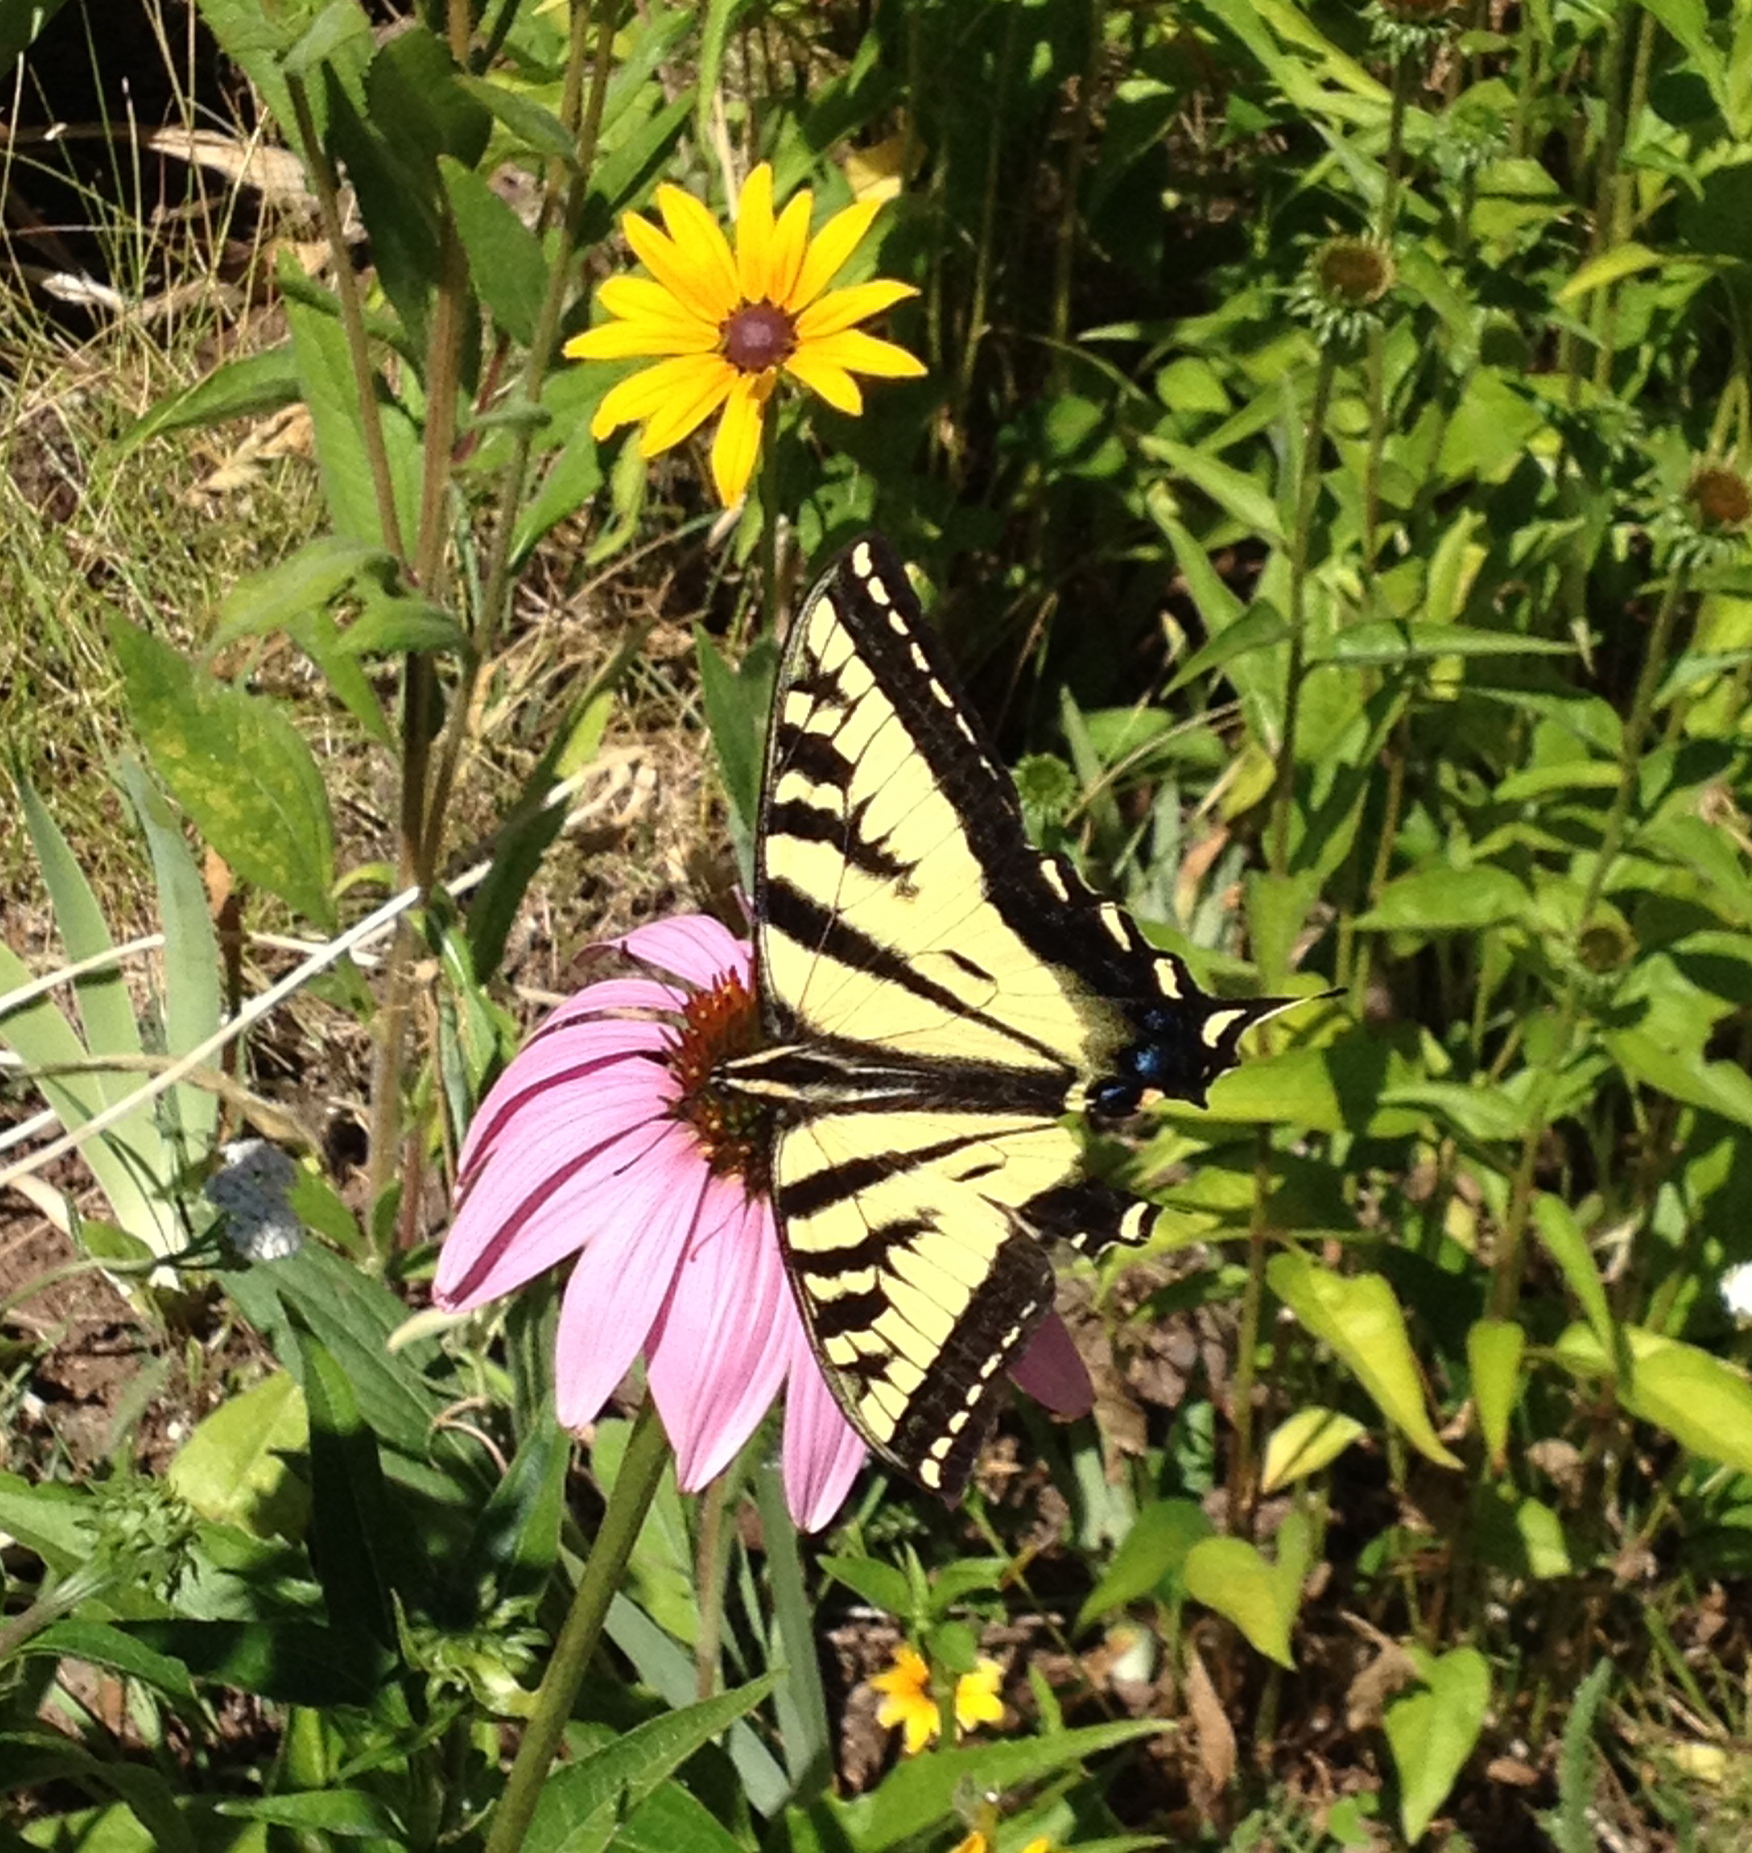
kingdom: Animalia
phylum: Arthropoda
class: Insecta
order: Lepidoptera
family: Papilionidae
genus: Papilio
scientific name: Papilio rutulus
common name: Western tiger swallowtail
